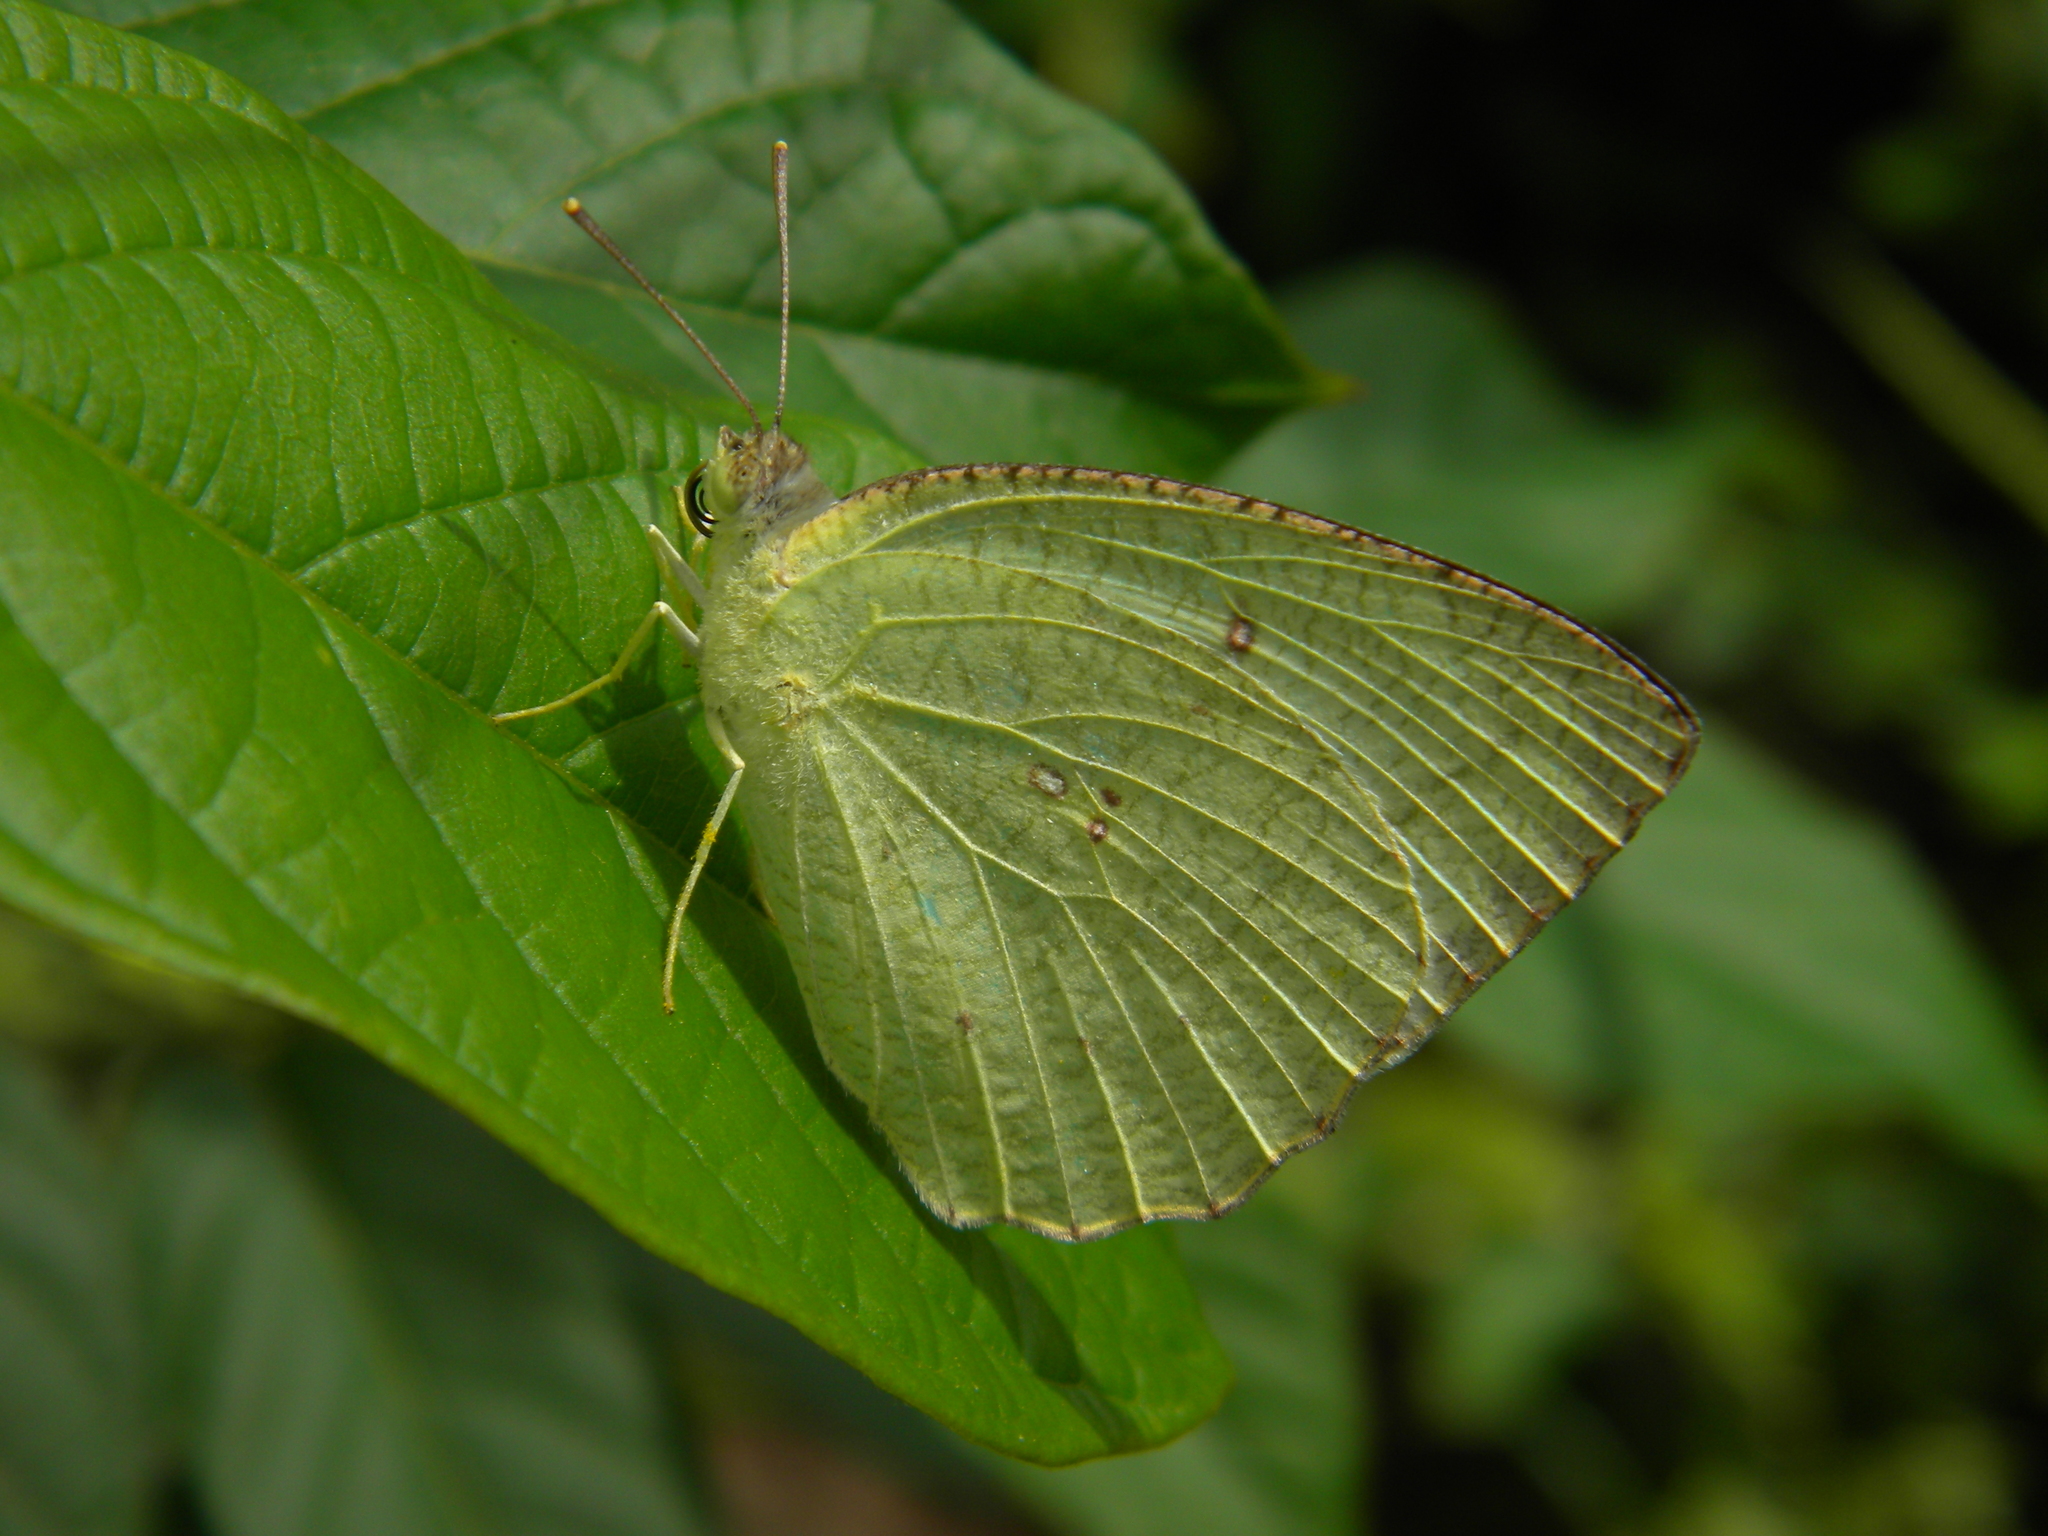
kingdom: Animalia
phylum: Arthropoda
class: Insecta
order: Lepidoptera
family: Pieridae
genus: Catopsilia
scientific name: Catopsilia pyranthe
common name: Mottled emigrant
